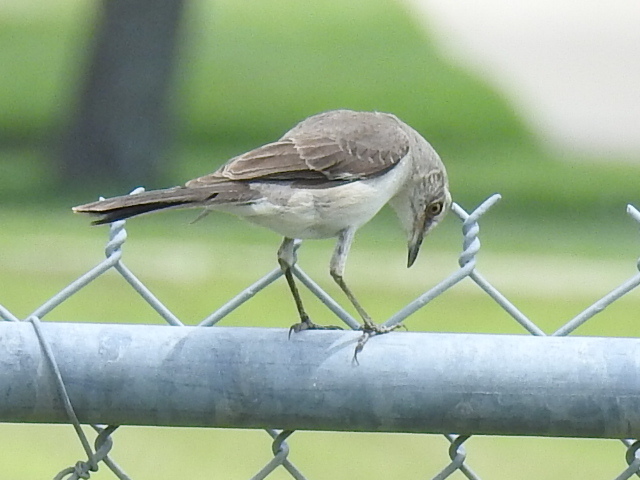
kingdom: Animalia
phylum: Chordata
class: Aves
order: Passeriformes
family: Mimidae
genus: Mimus
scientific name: Mimus polyglottos
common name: Northern mockingbird
